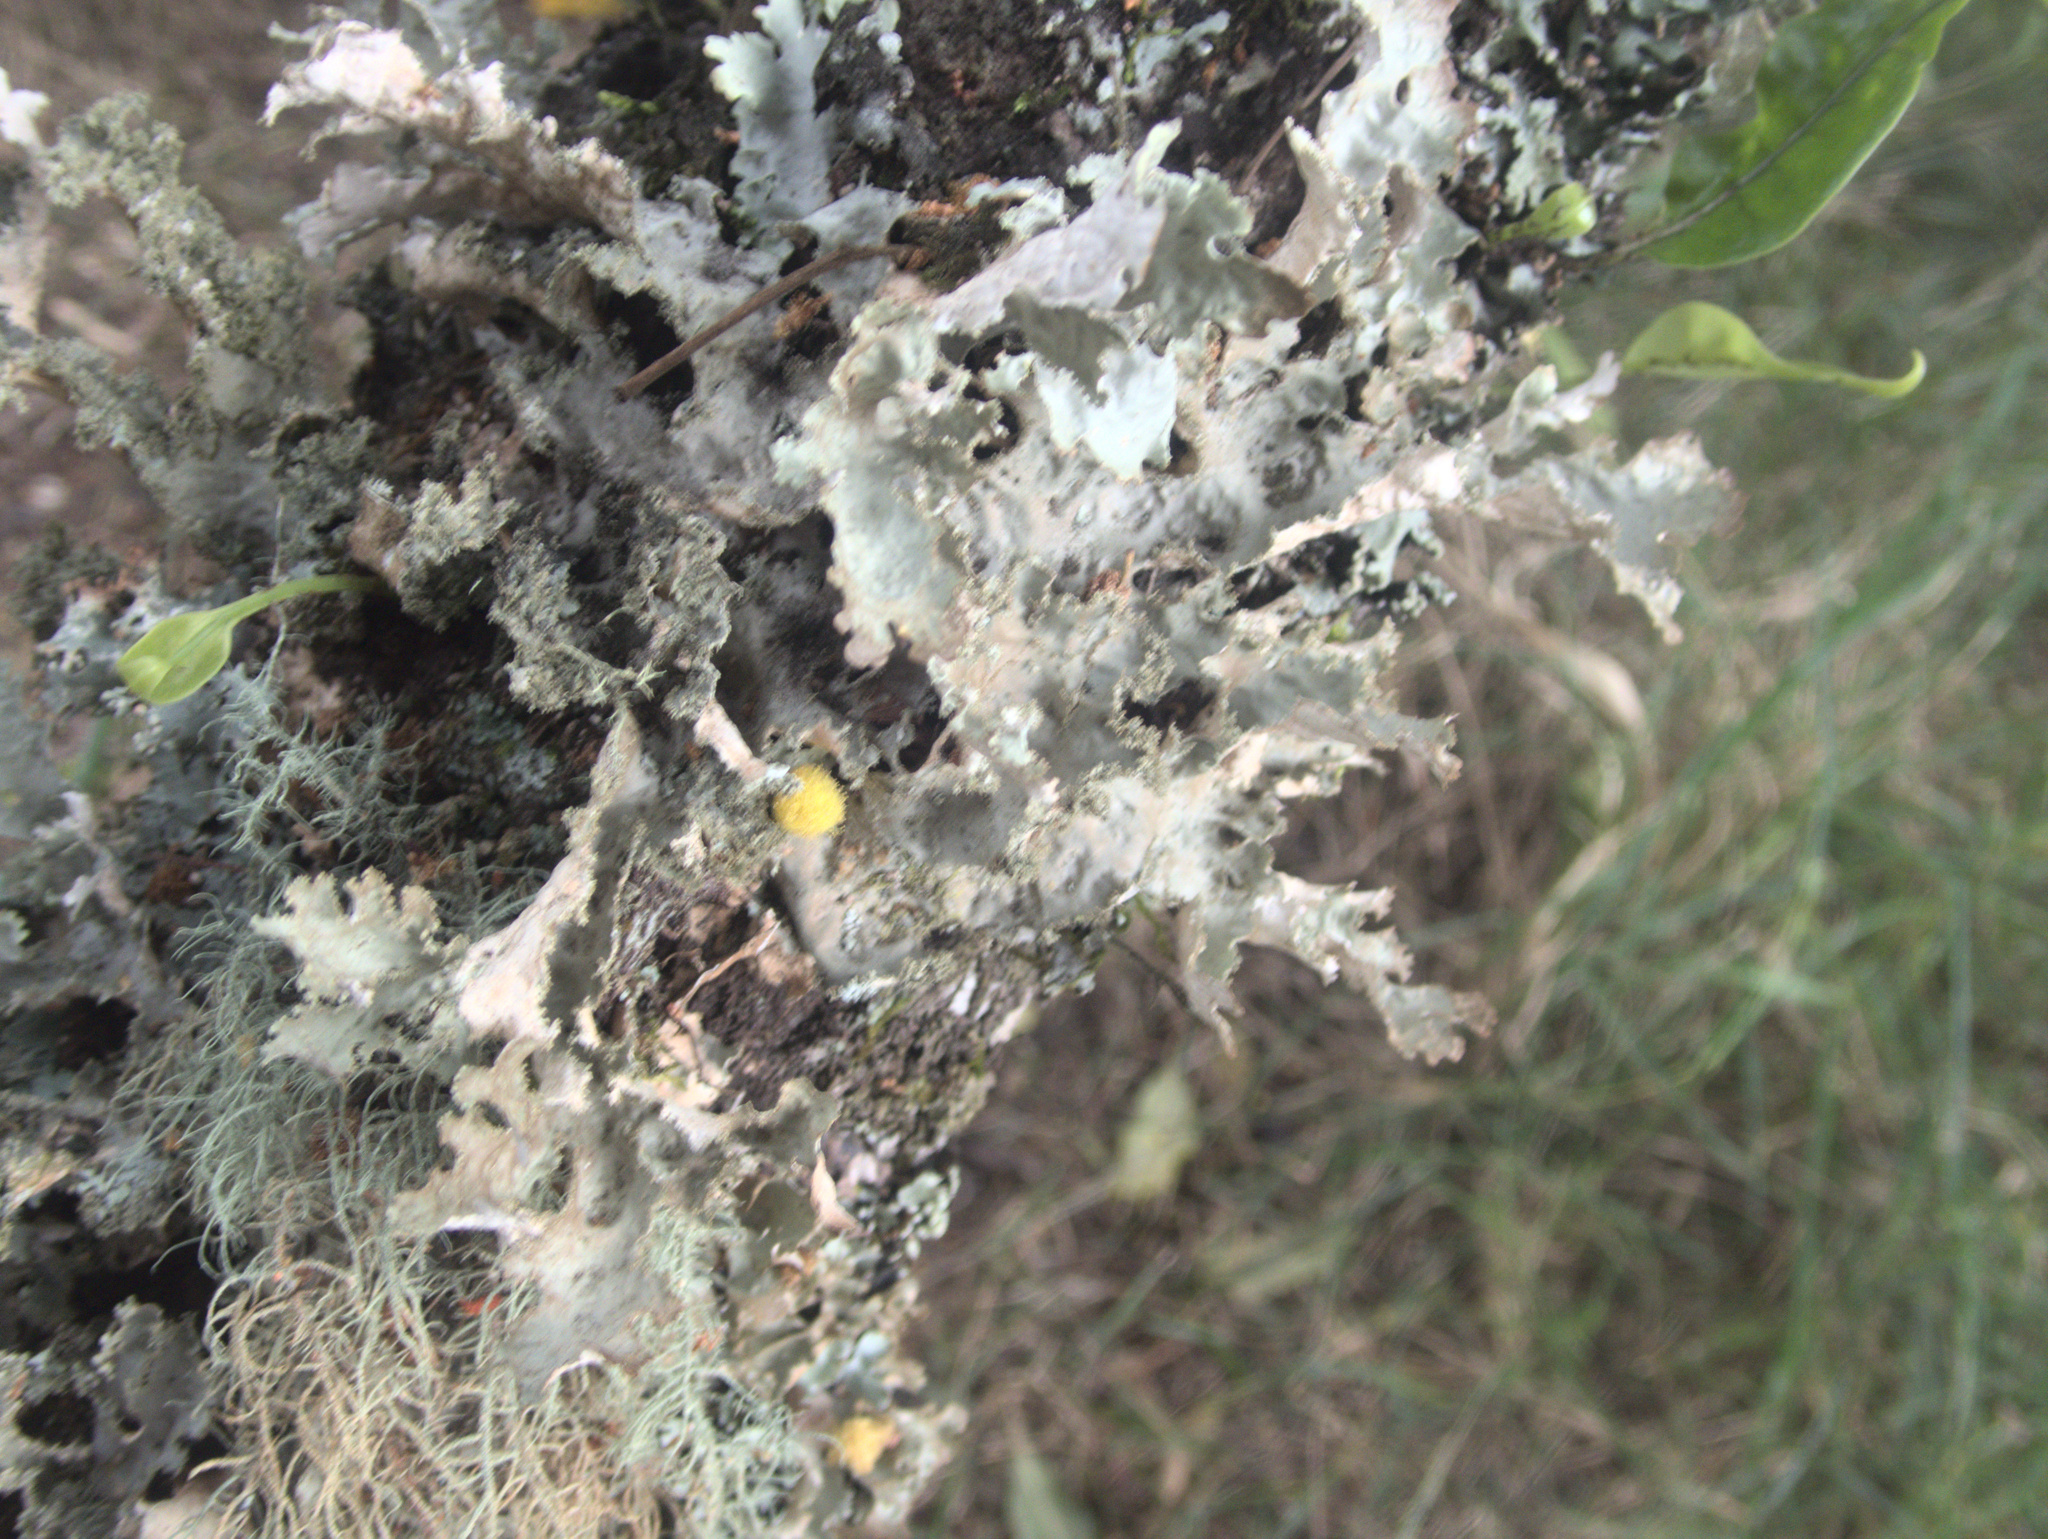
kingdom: Fungi
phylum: Ascomycota
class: Lecanoromycetes
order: Peltigerales
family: Lobariaceae
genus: Pseudocyphellaria
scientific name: Pseudocyphellaria chloroleuca
